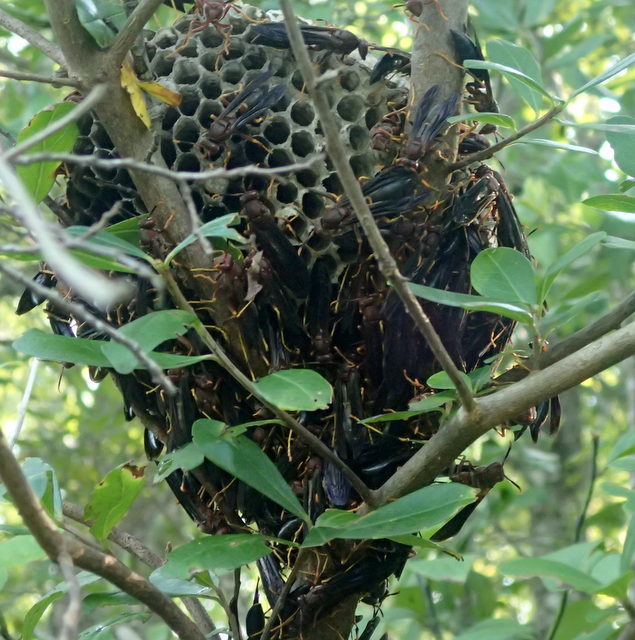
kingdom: Animalia
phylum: Arthropoda
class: Insecta
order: Hymenoptera
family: Eumenidae
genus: Polistes
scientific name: Polistes annularis
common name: Ringed paper wasp
